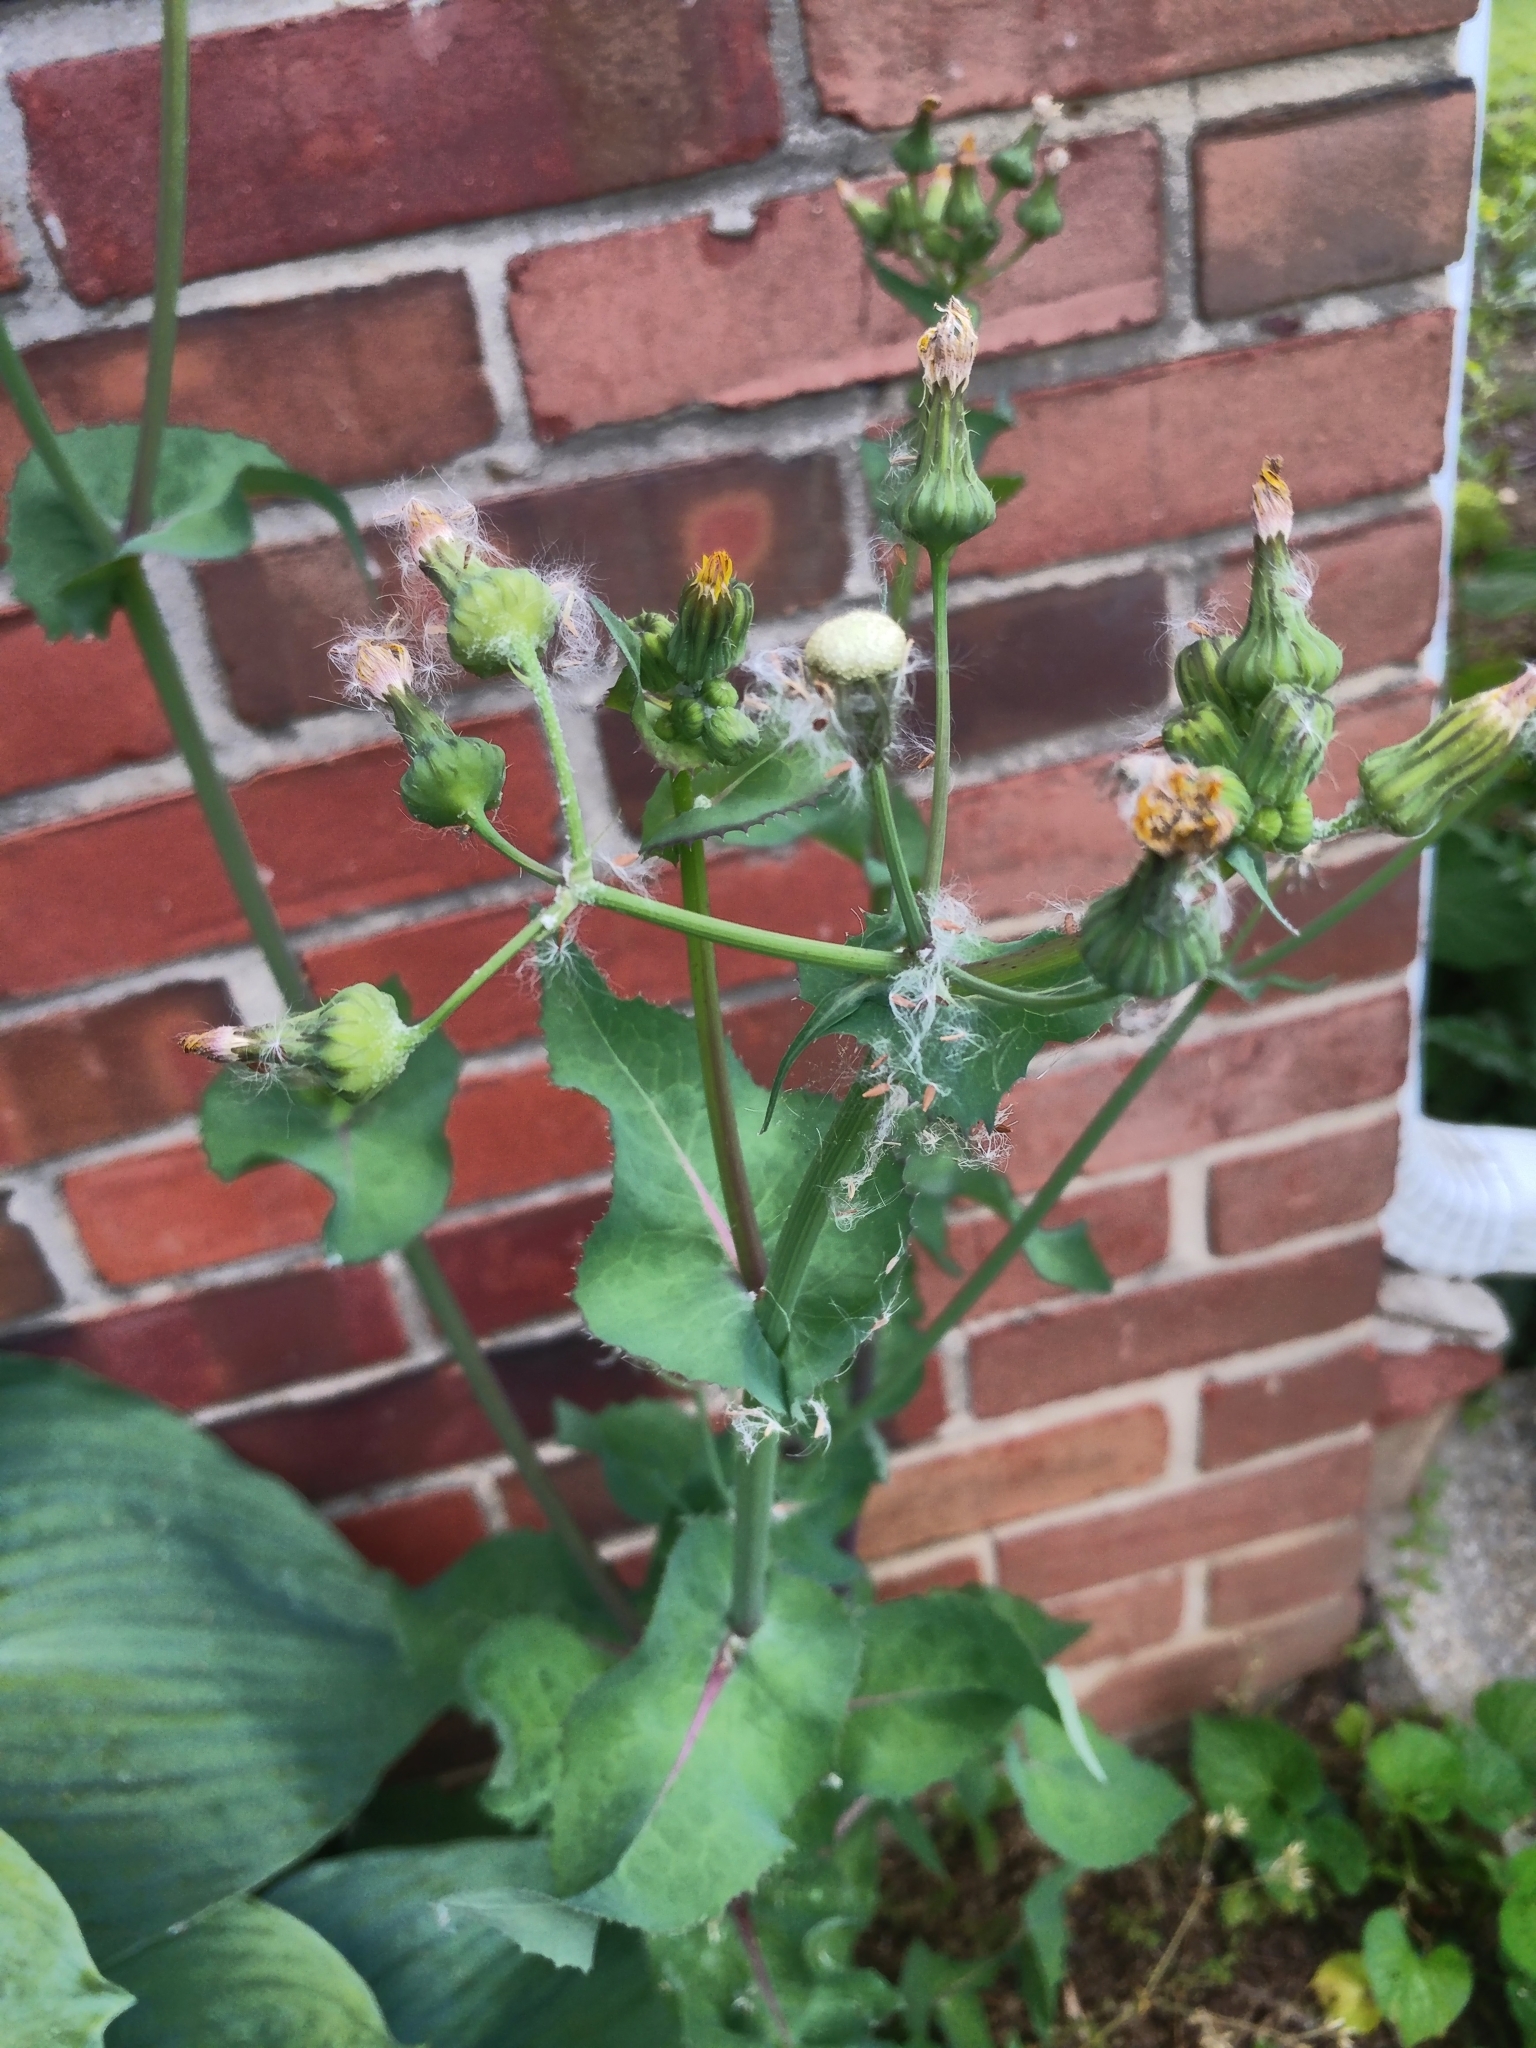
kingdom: Plantae
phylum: Tracheophyta
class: Magnoliopsida
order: Asterales
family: Asteraceae
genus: Sonchus
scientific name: Sonchus oleraceus
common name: Common sowthistle
